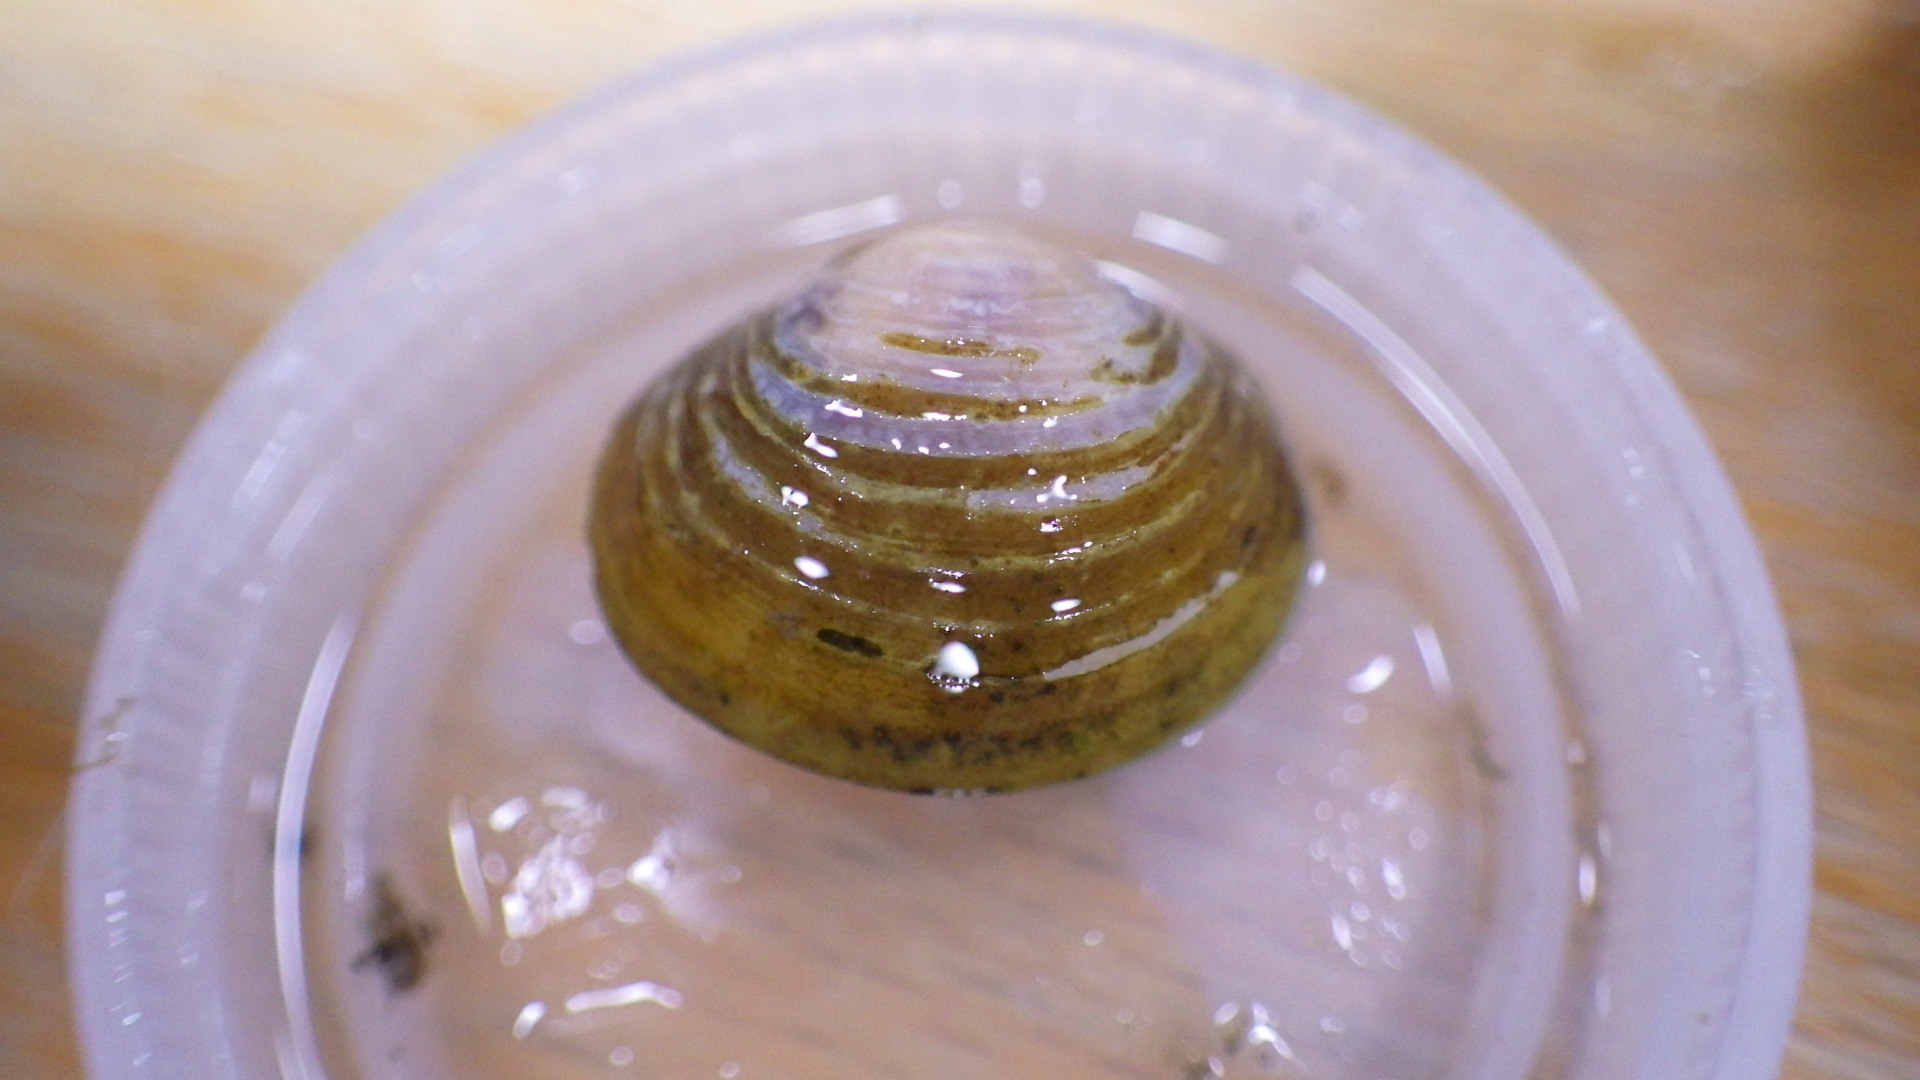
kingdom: Animalia
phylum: Mollusca
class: Bivalvia
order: Venerida
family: Cyrenidae
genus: Corbicula
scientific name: Corbicula fluminea
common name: Asian clam
